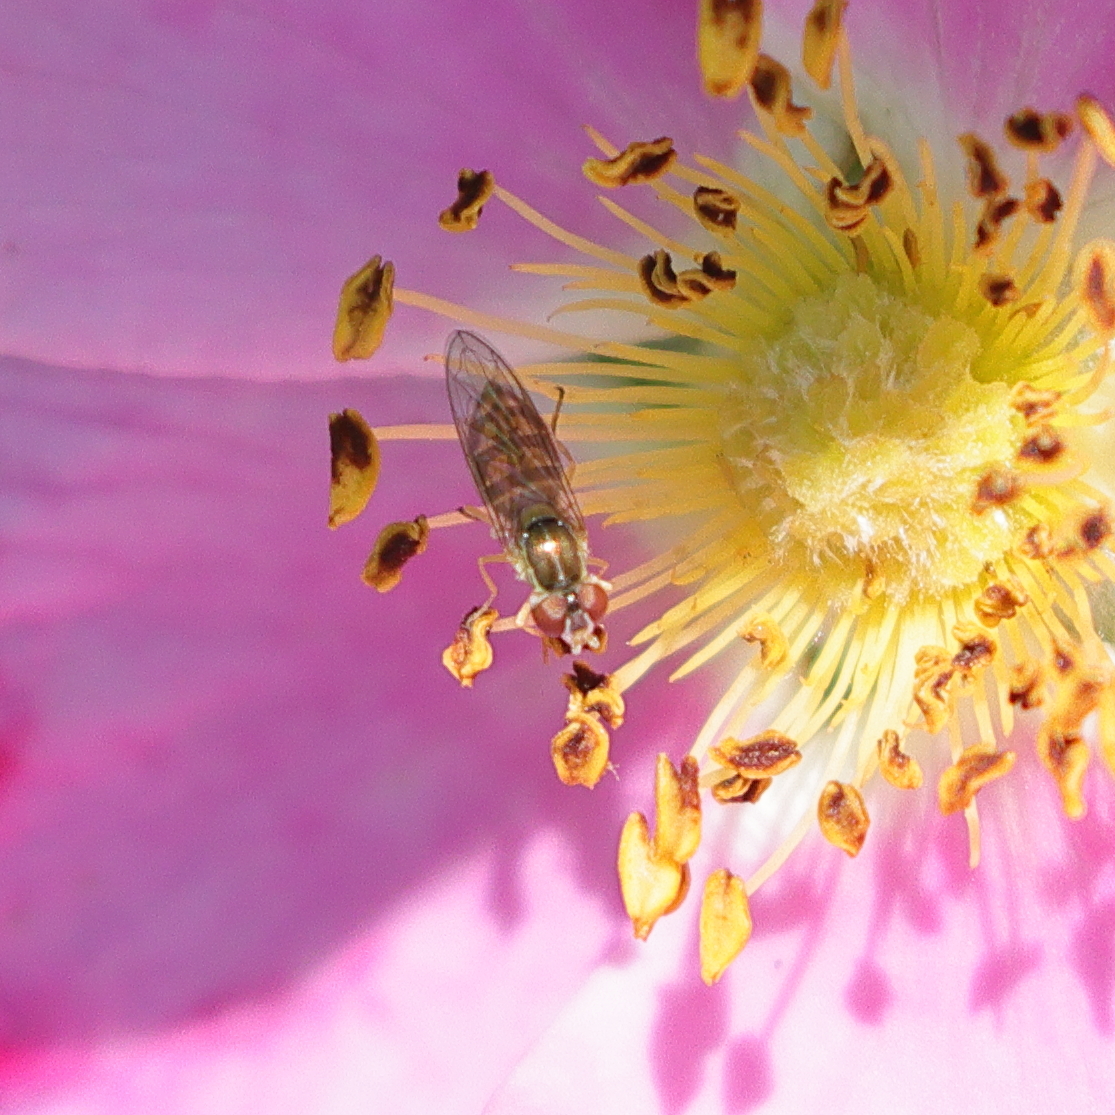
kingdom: Animalia
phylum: Arthropoda
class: Insecta
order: Diptera
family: Syrphidae
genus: Toxomerus
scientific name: Toxomerus marginatus
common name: Syrphid fly
